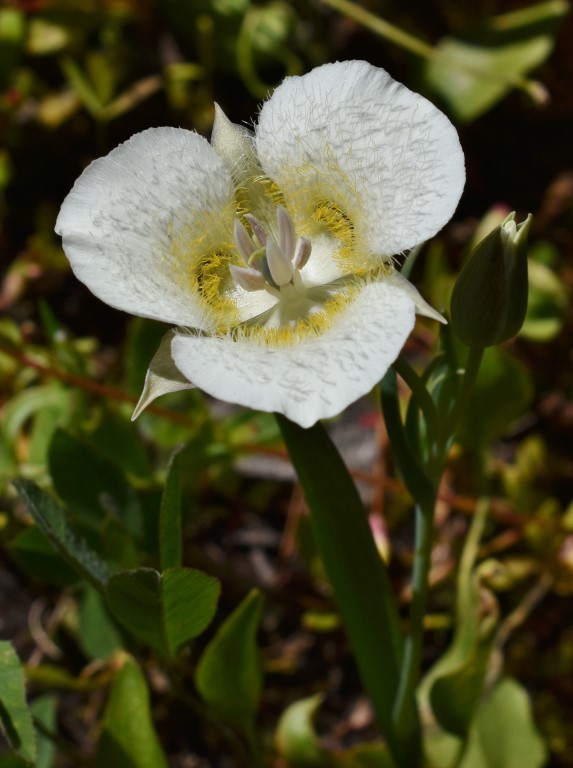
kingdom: Plantae
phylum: Tracheophyta
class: Liliopsida
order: Liliales
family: Liliaceae
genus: Calochortus
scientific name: Calochortus subalpinus
